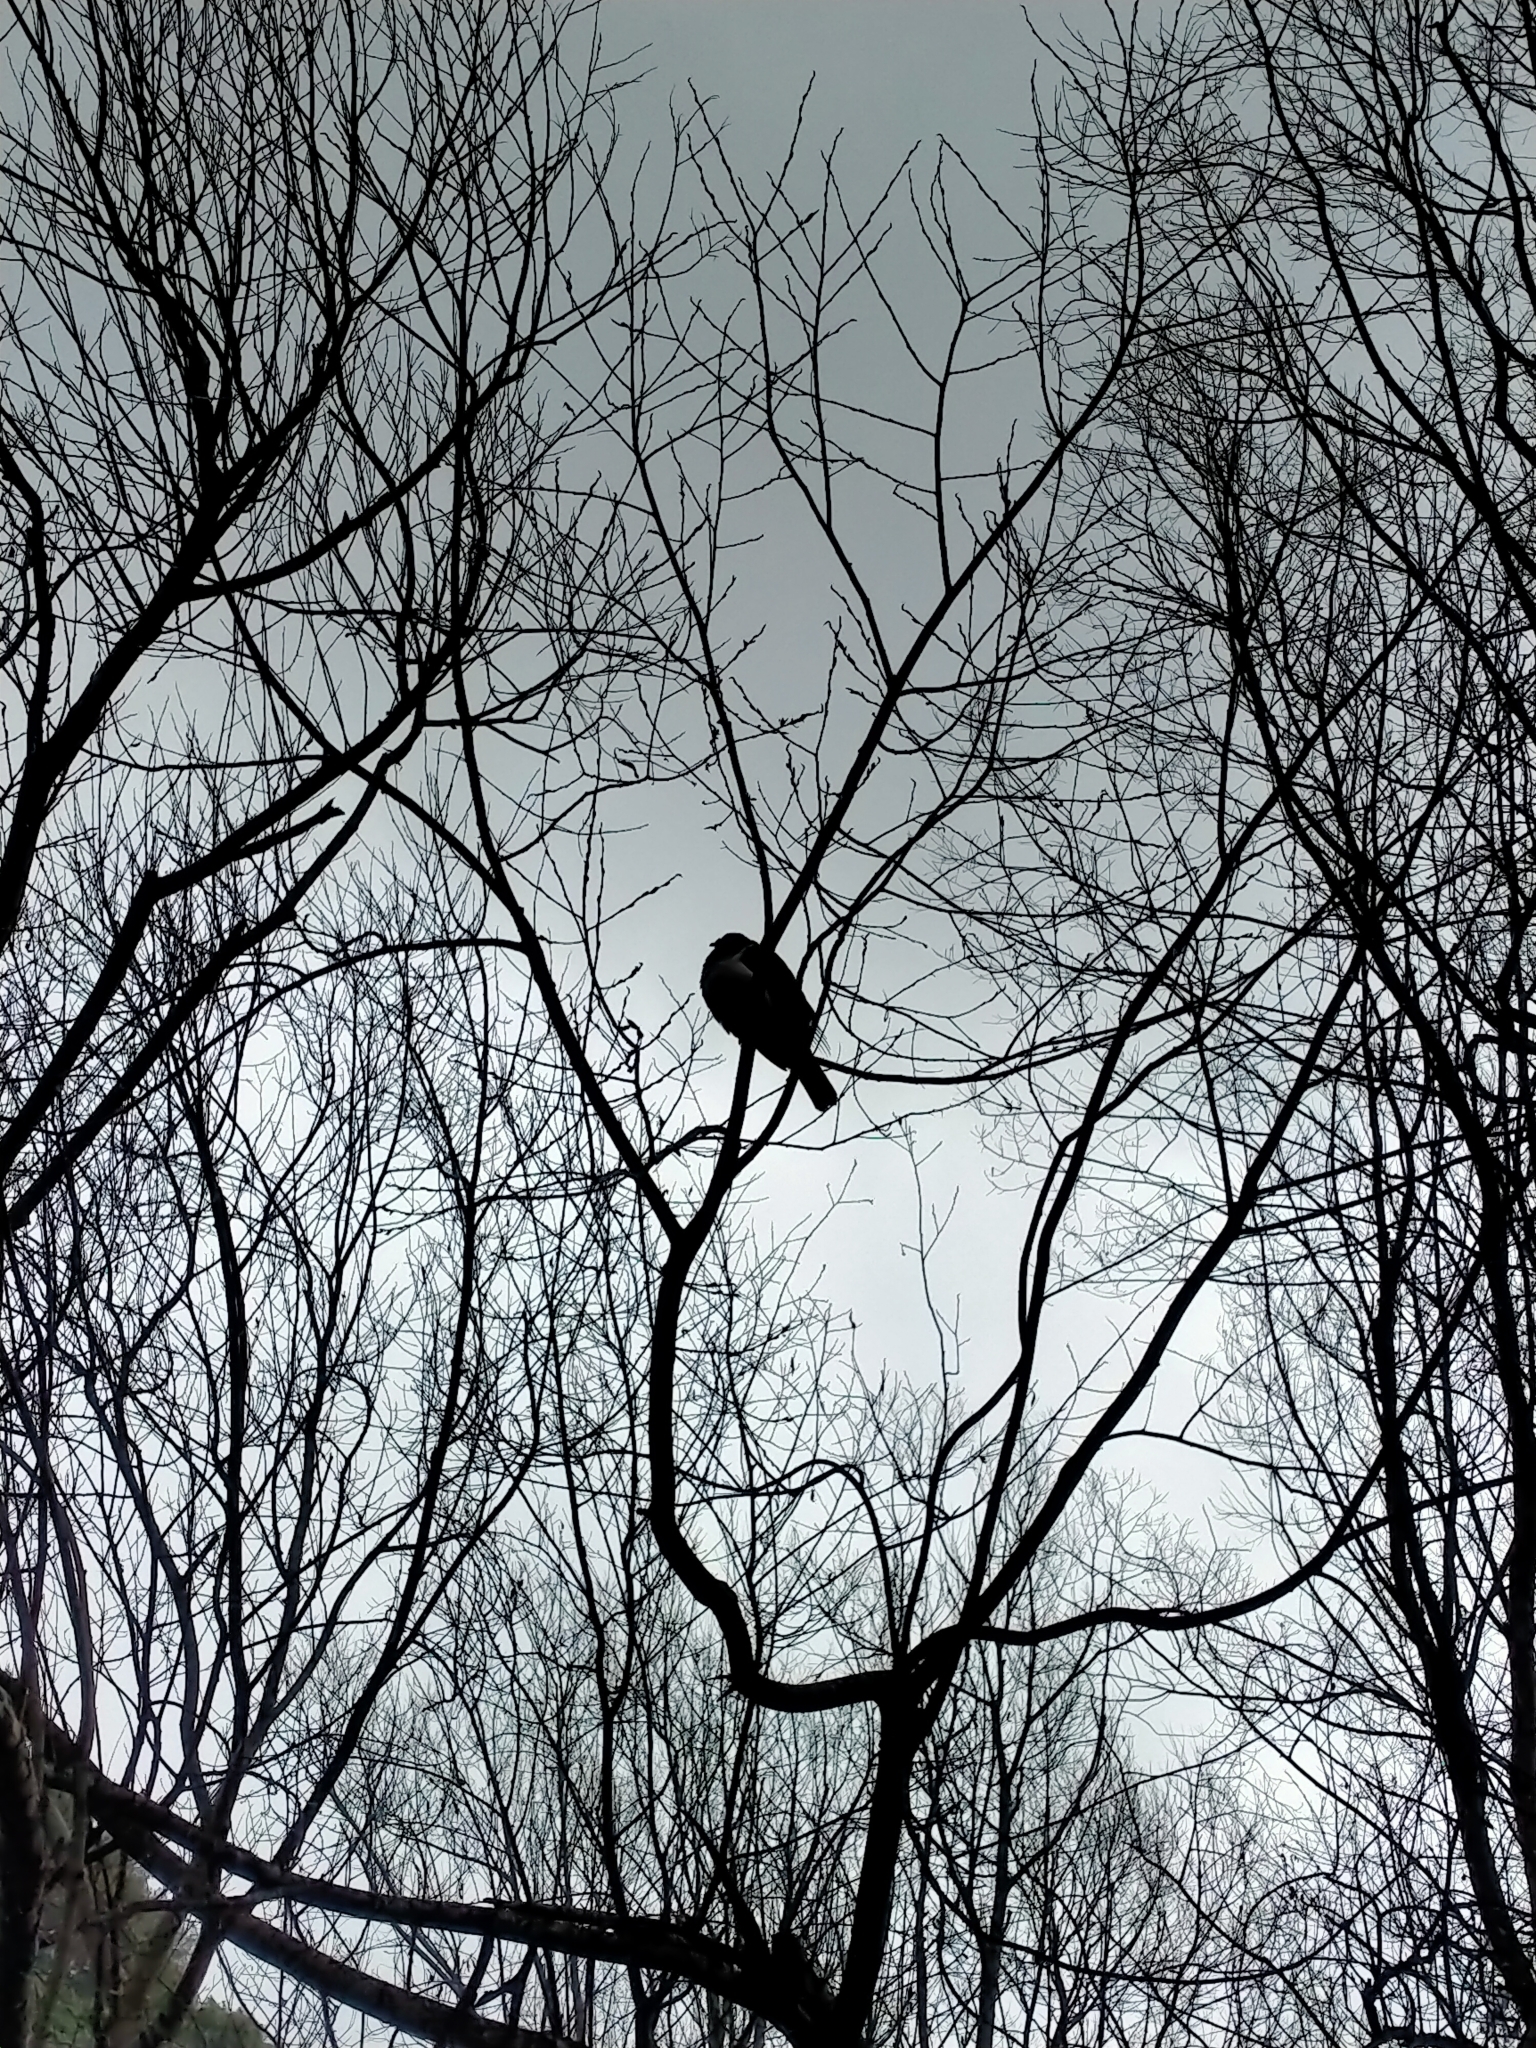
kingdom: Animalia
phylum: Chordata
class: Aves
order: Columbiformes
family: Columbidae
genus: Hemiphaga
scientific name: Hemiphaga novaeseelandiae
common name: New zealand pigeon
